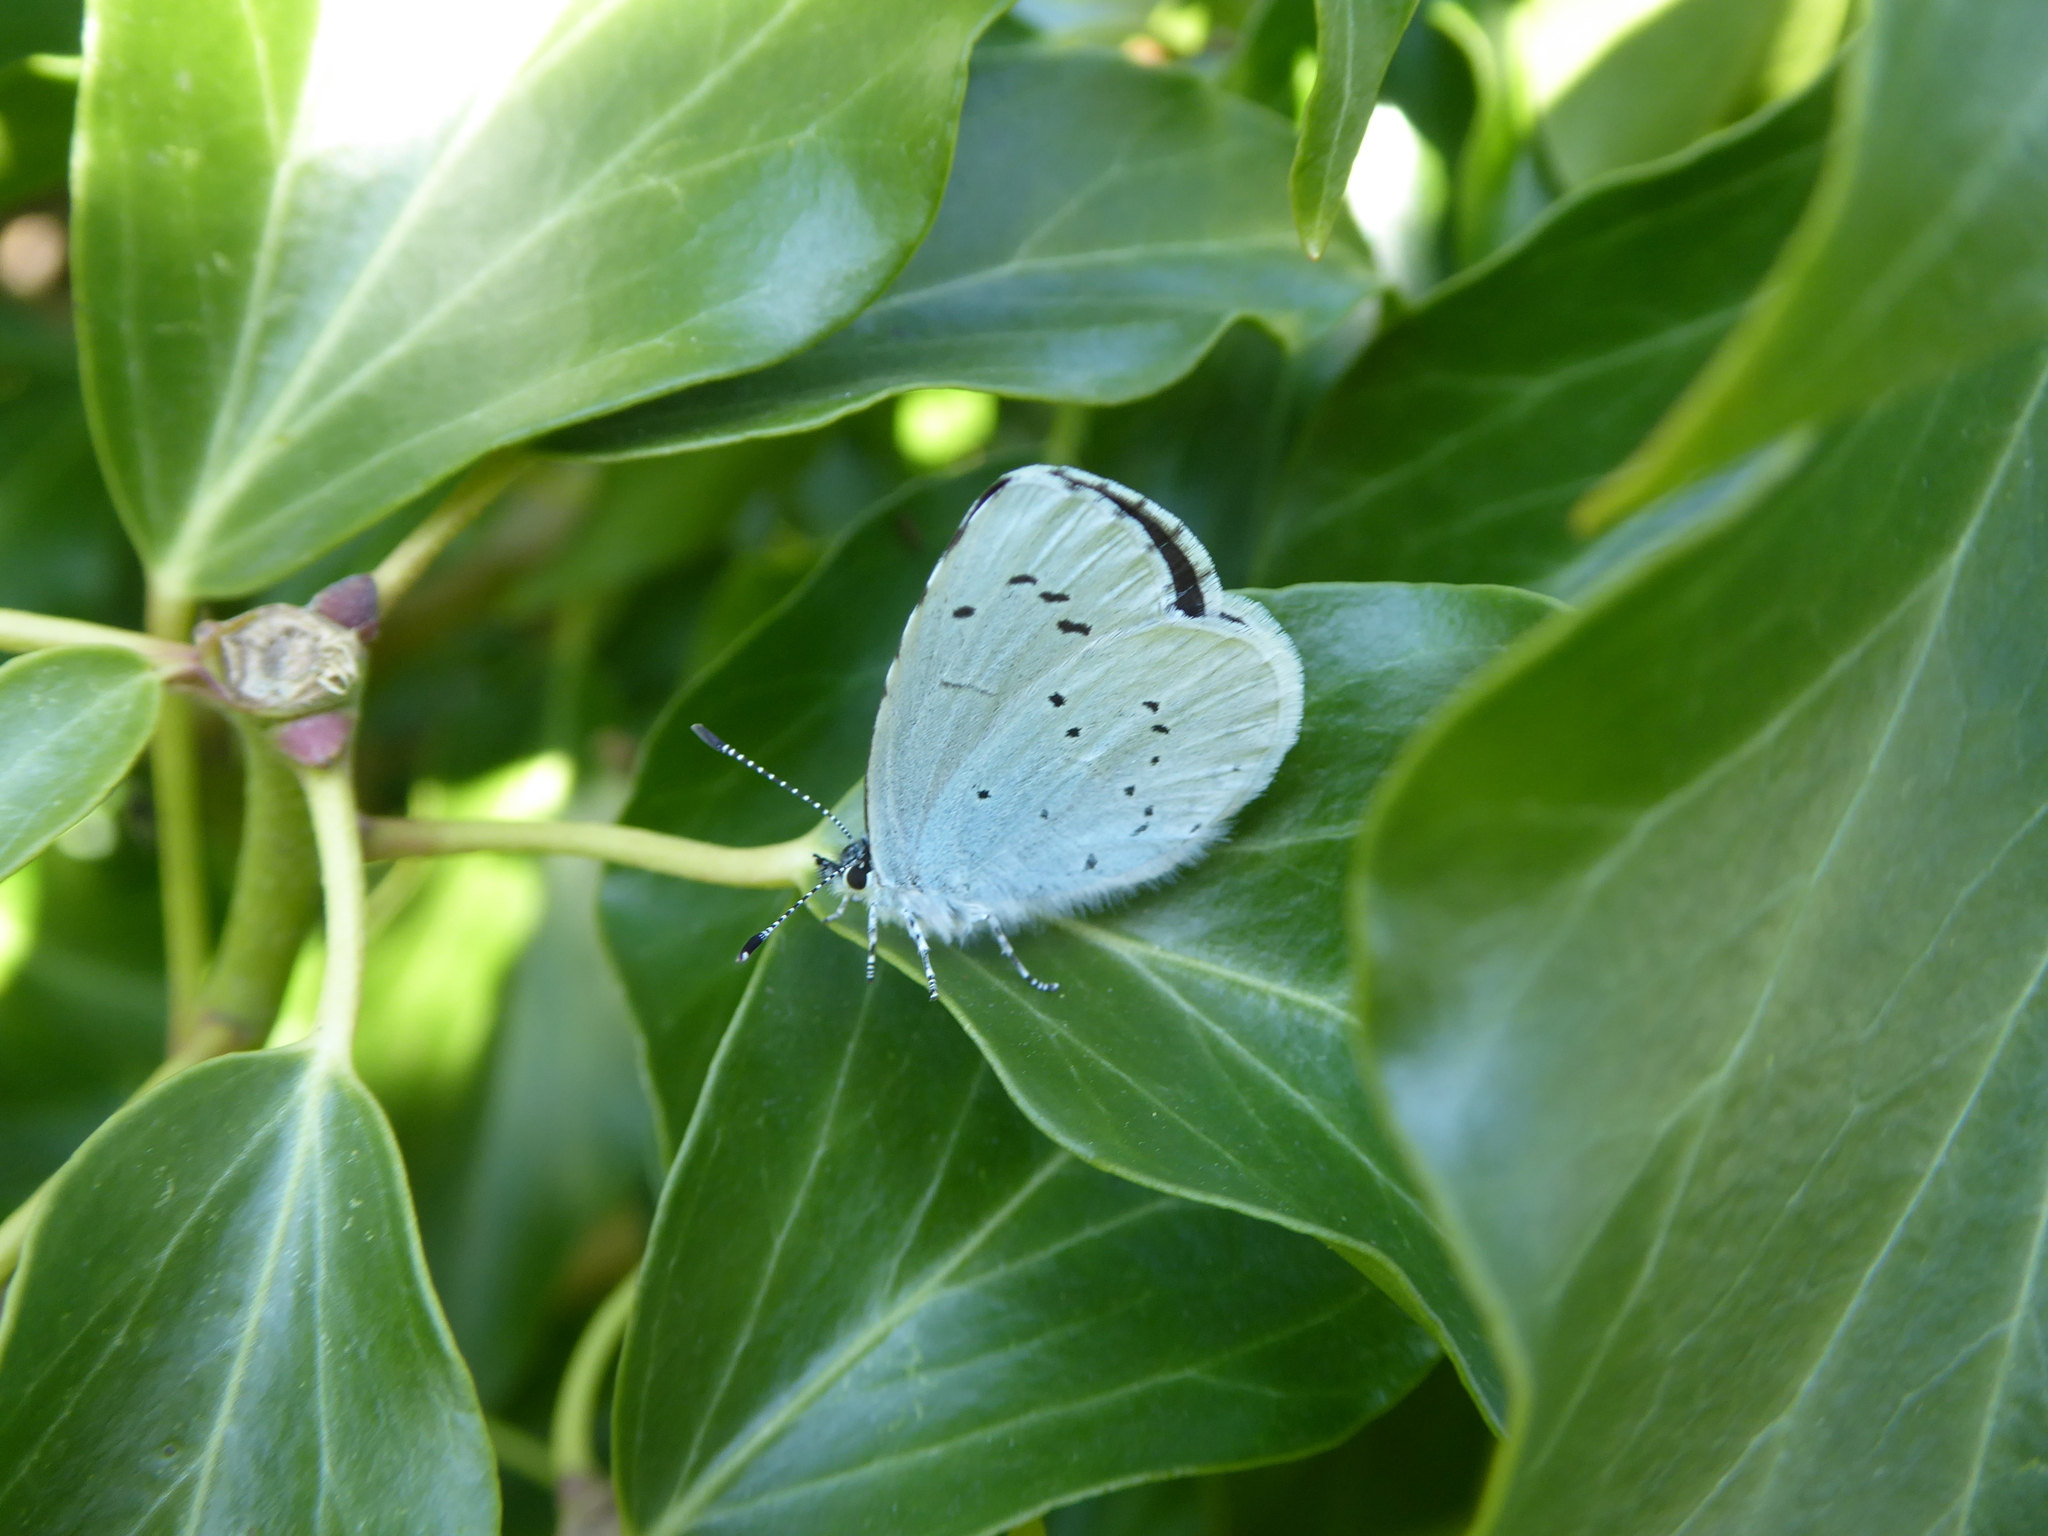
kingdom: Animalia
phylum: Arthropoda
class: Insecta
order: Lepidoptera
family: Lycaenidae
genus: Celastrina
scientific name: Celastrina argiolus
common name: Holly blue
